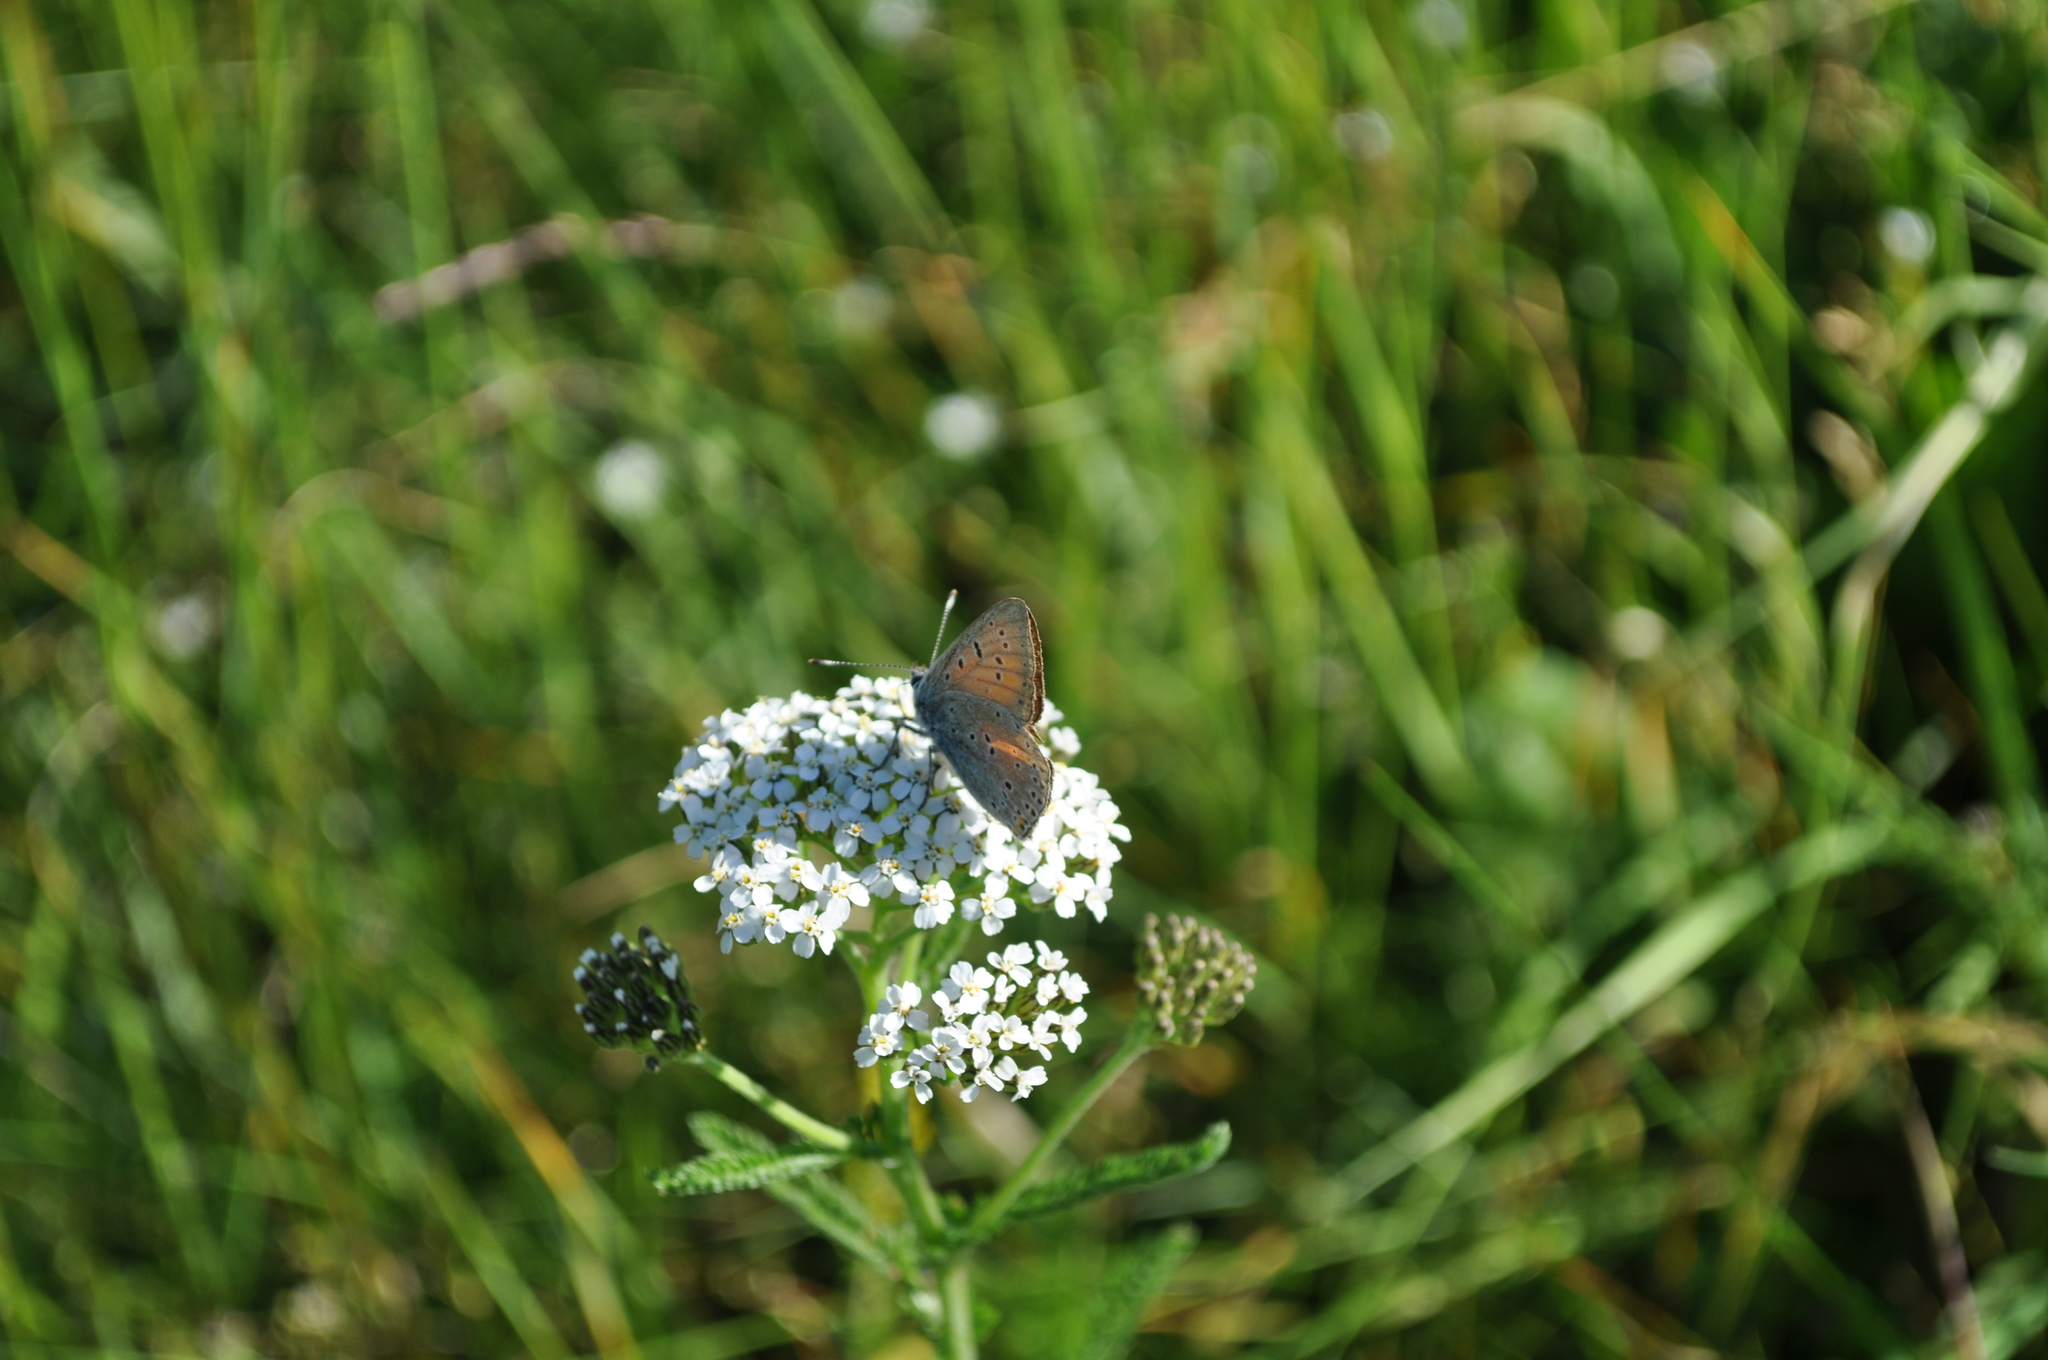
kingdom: Animalia
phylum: Arthropoda
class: Insecta
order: Lepidoptera
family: Lycaenidae
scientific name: Lycaenidae
